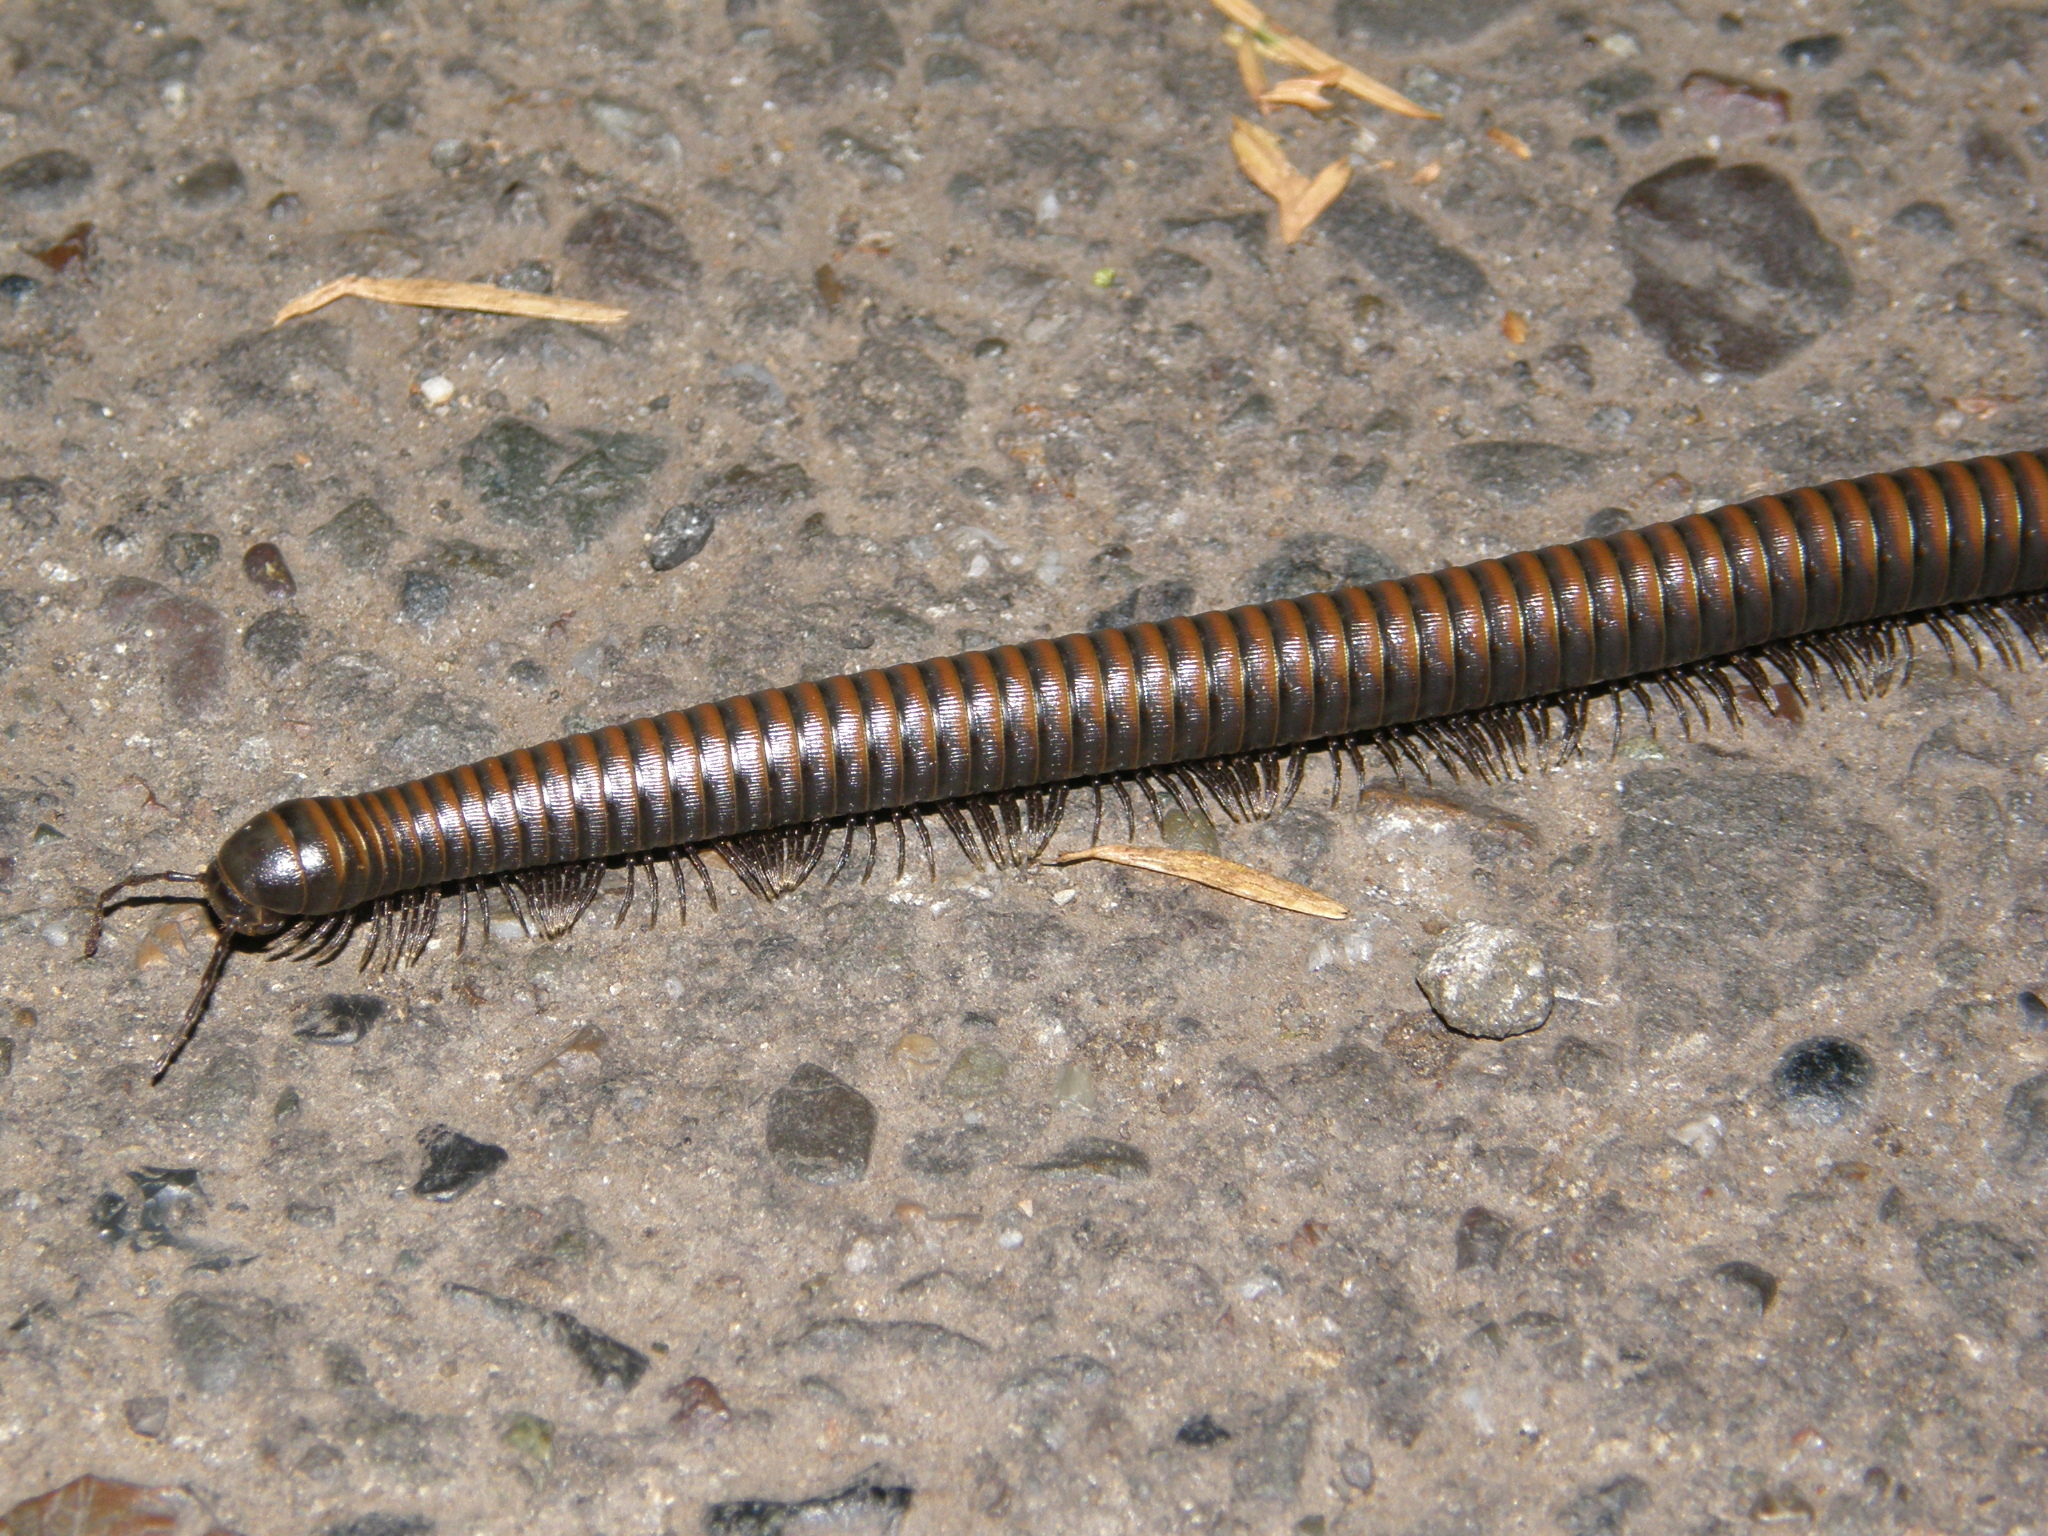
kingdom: Animalia
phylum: Arthropoda
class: Diplopoda
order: Julida
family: Paeromopodidae
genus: Paeromopus
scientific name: Paeromopus angusticeps
